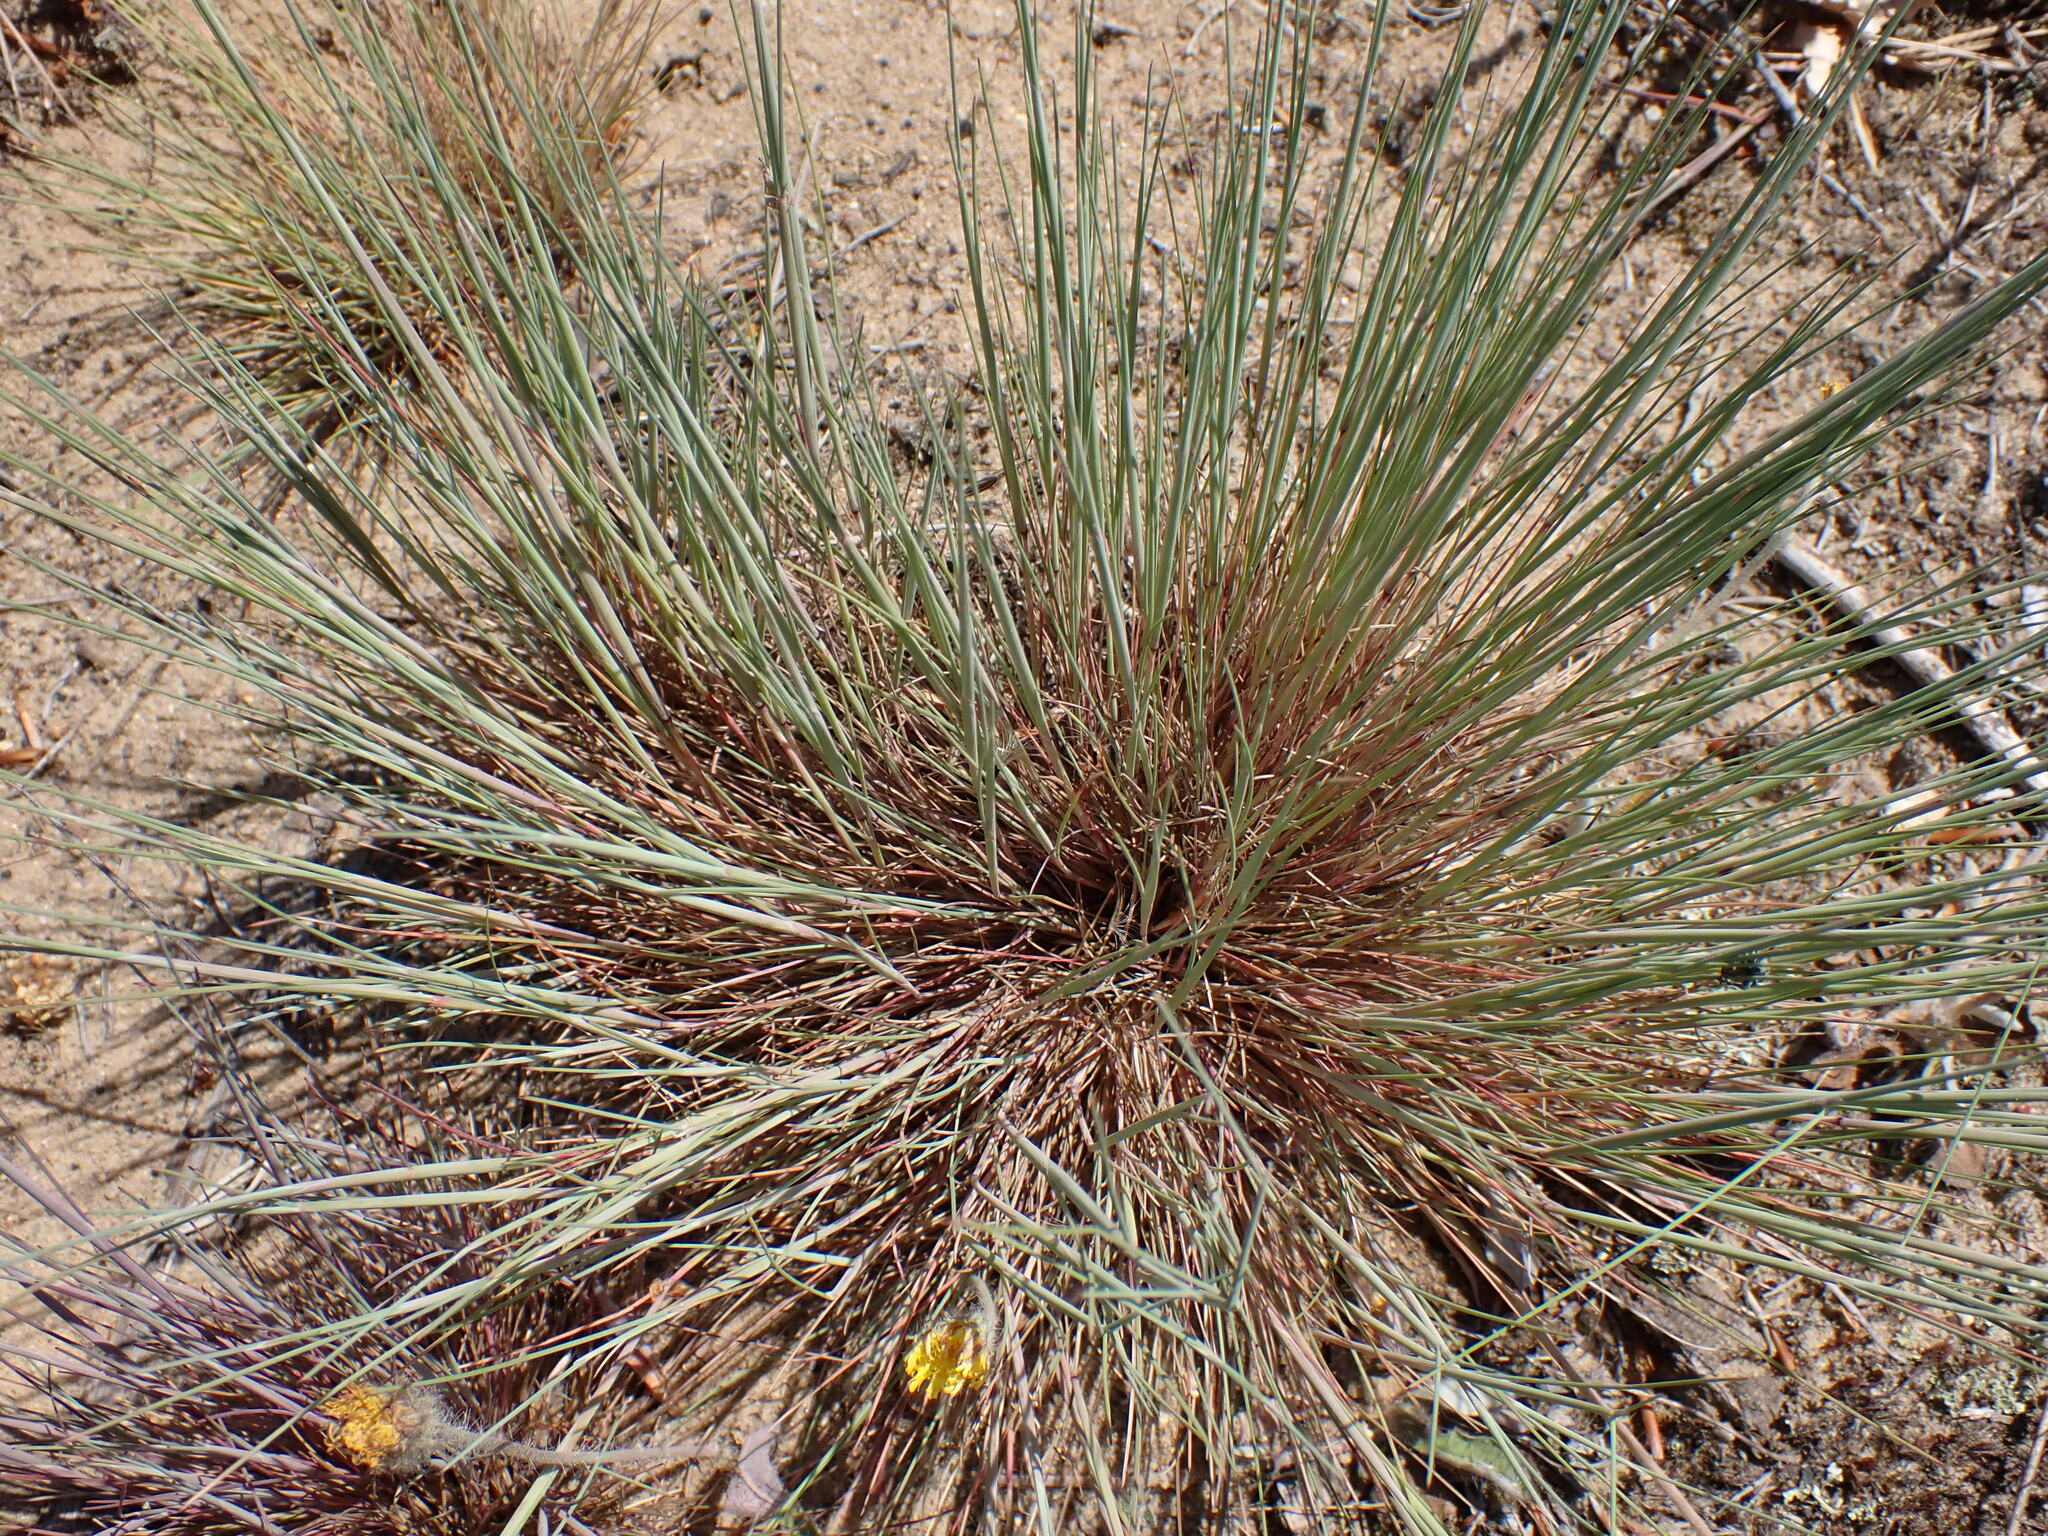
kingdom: Animalia
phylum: Arthropoda
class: Insecta
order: Coleoptera
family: Curculionidae
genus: Philopedon
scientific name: Philopedon plagiatum
